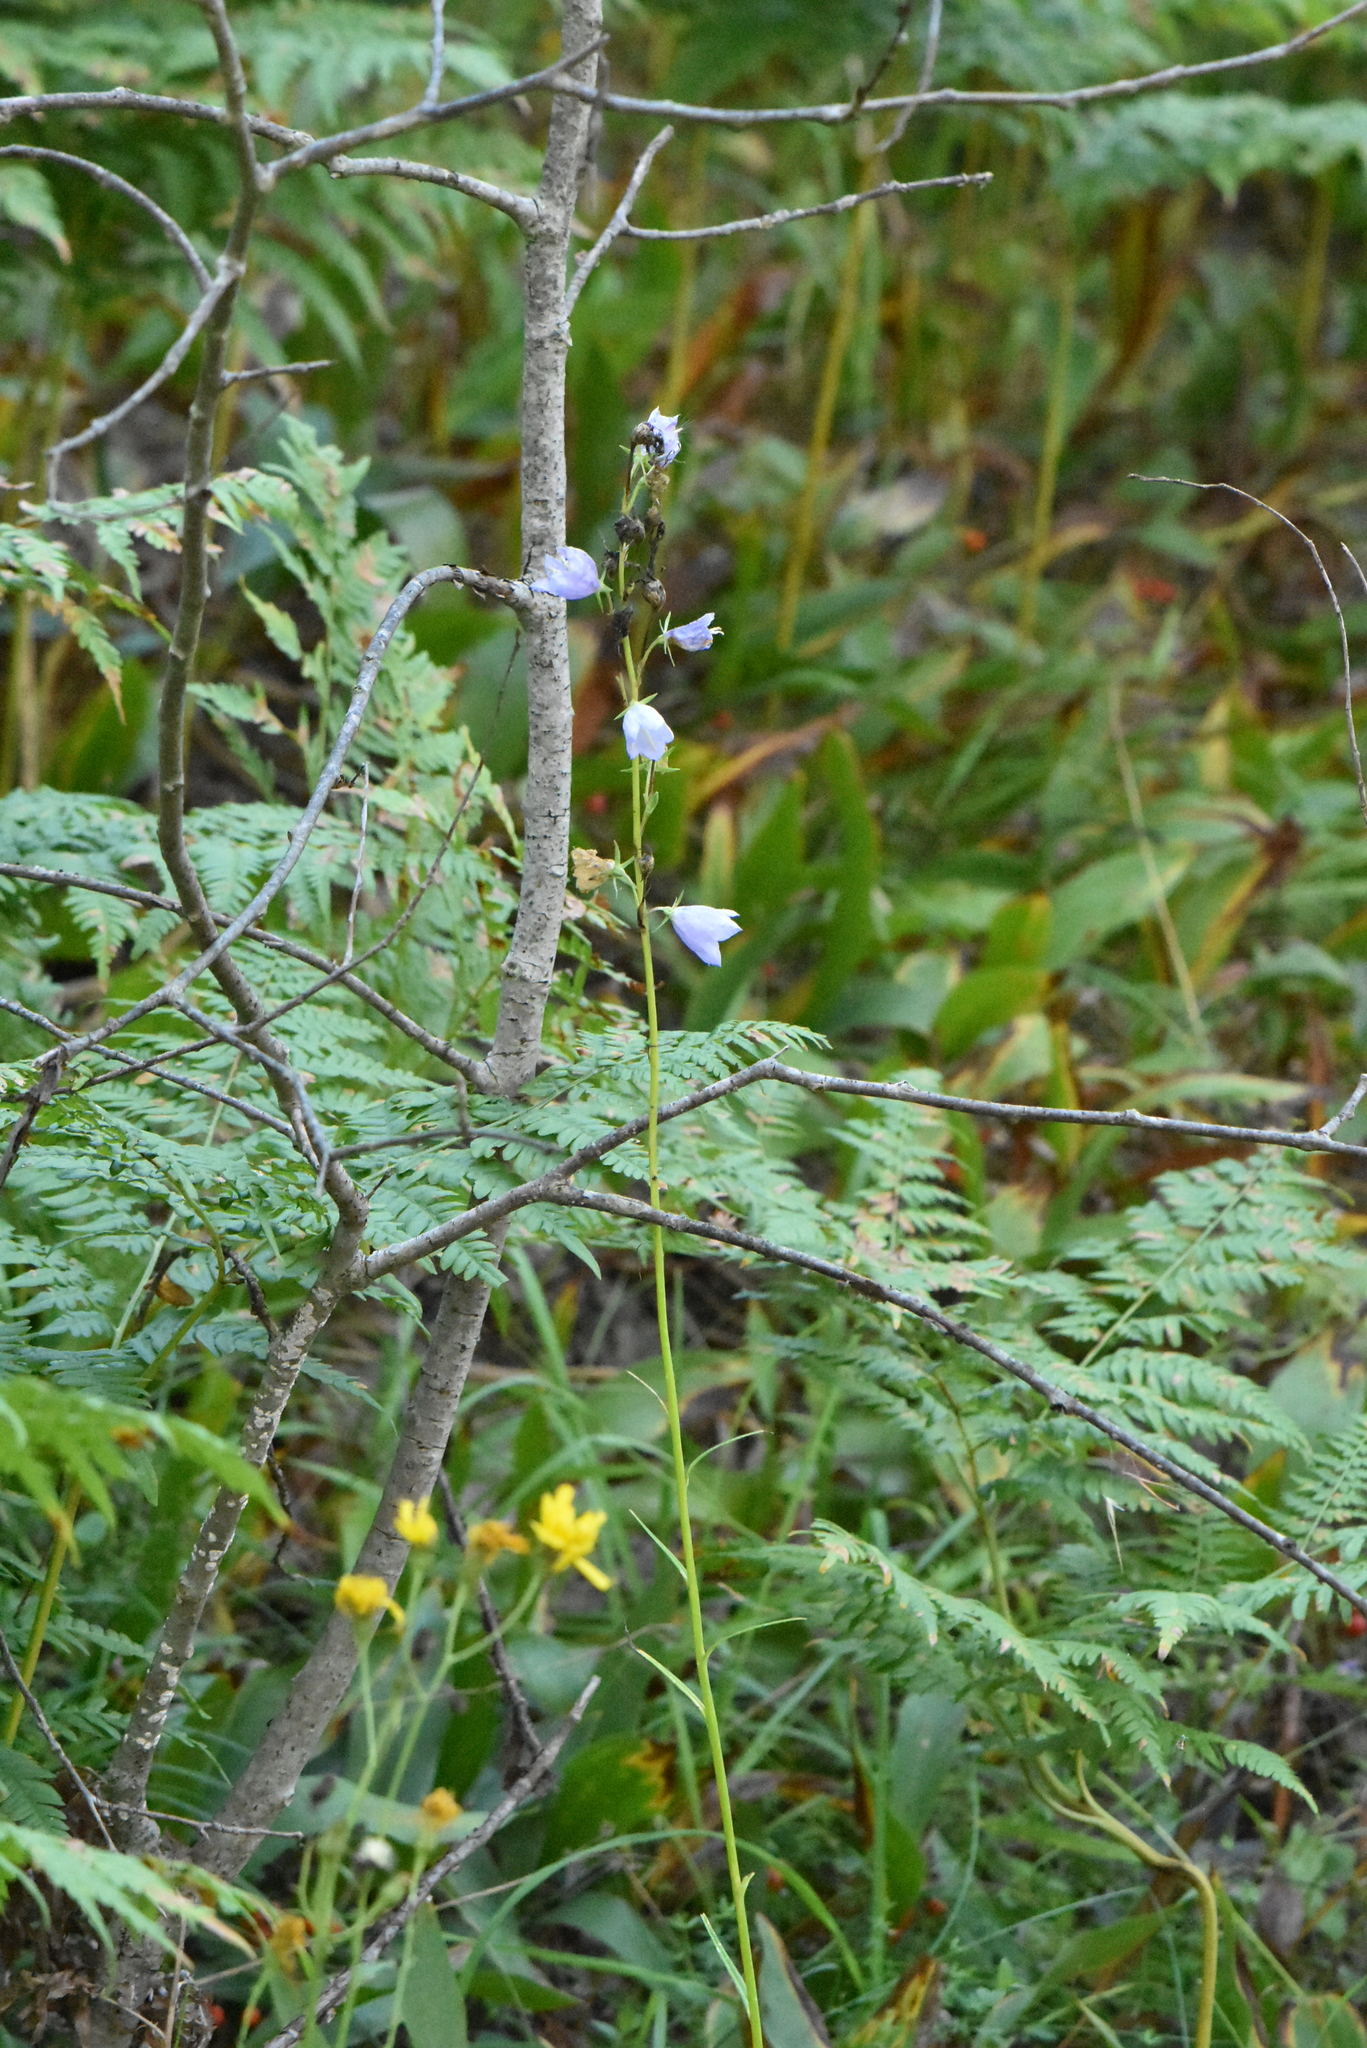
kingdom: Plantae
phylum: Tracheophyta
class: Magnoliopsida
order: Asterales
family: Campanulaceae
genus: Campanula
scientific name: Campanula persicifolia
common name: Peach-leaved bellflower
